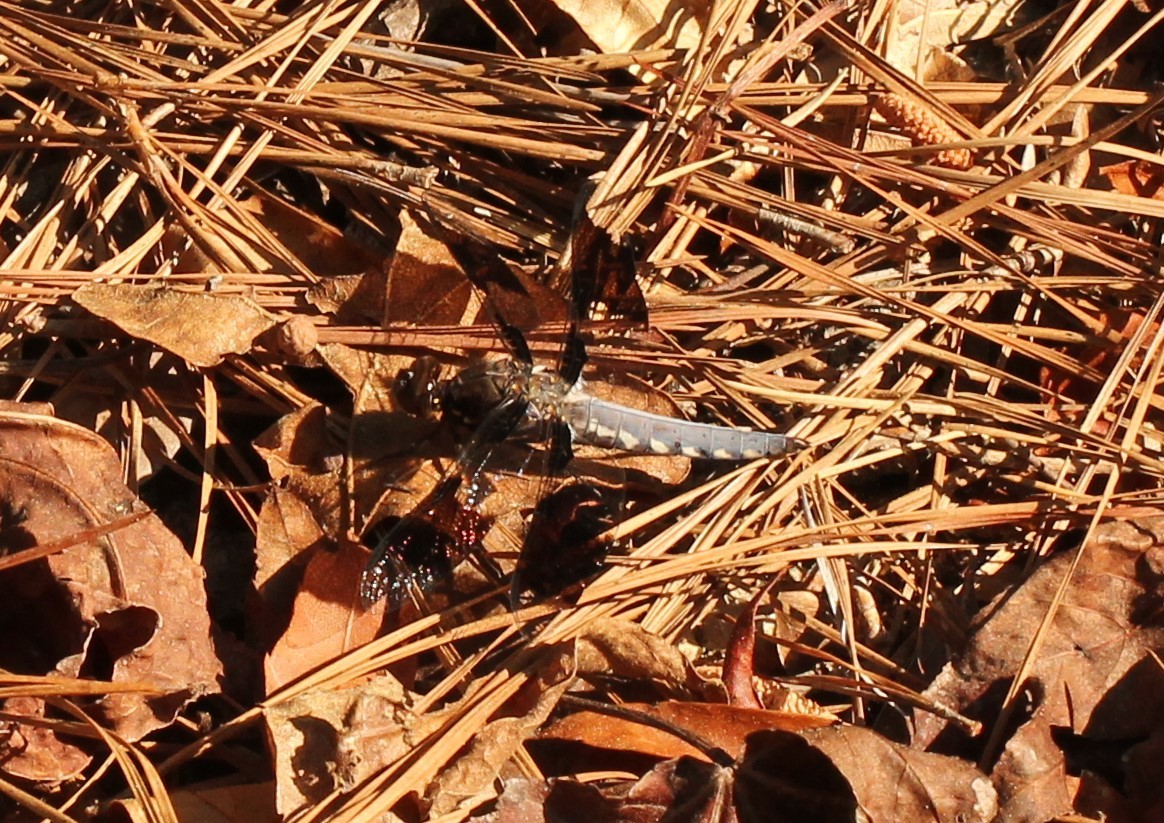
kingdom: Animalia
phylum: Arthropoda
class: Insecta
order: Odonata
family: Libellulidae
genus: Plathemis
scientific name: Plathemis lydia
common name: Common whitetail
